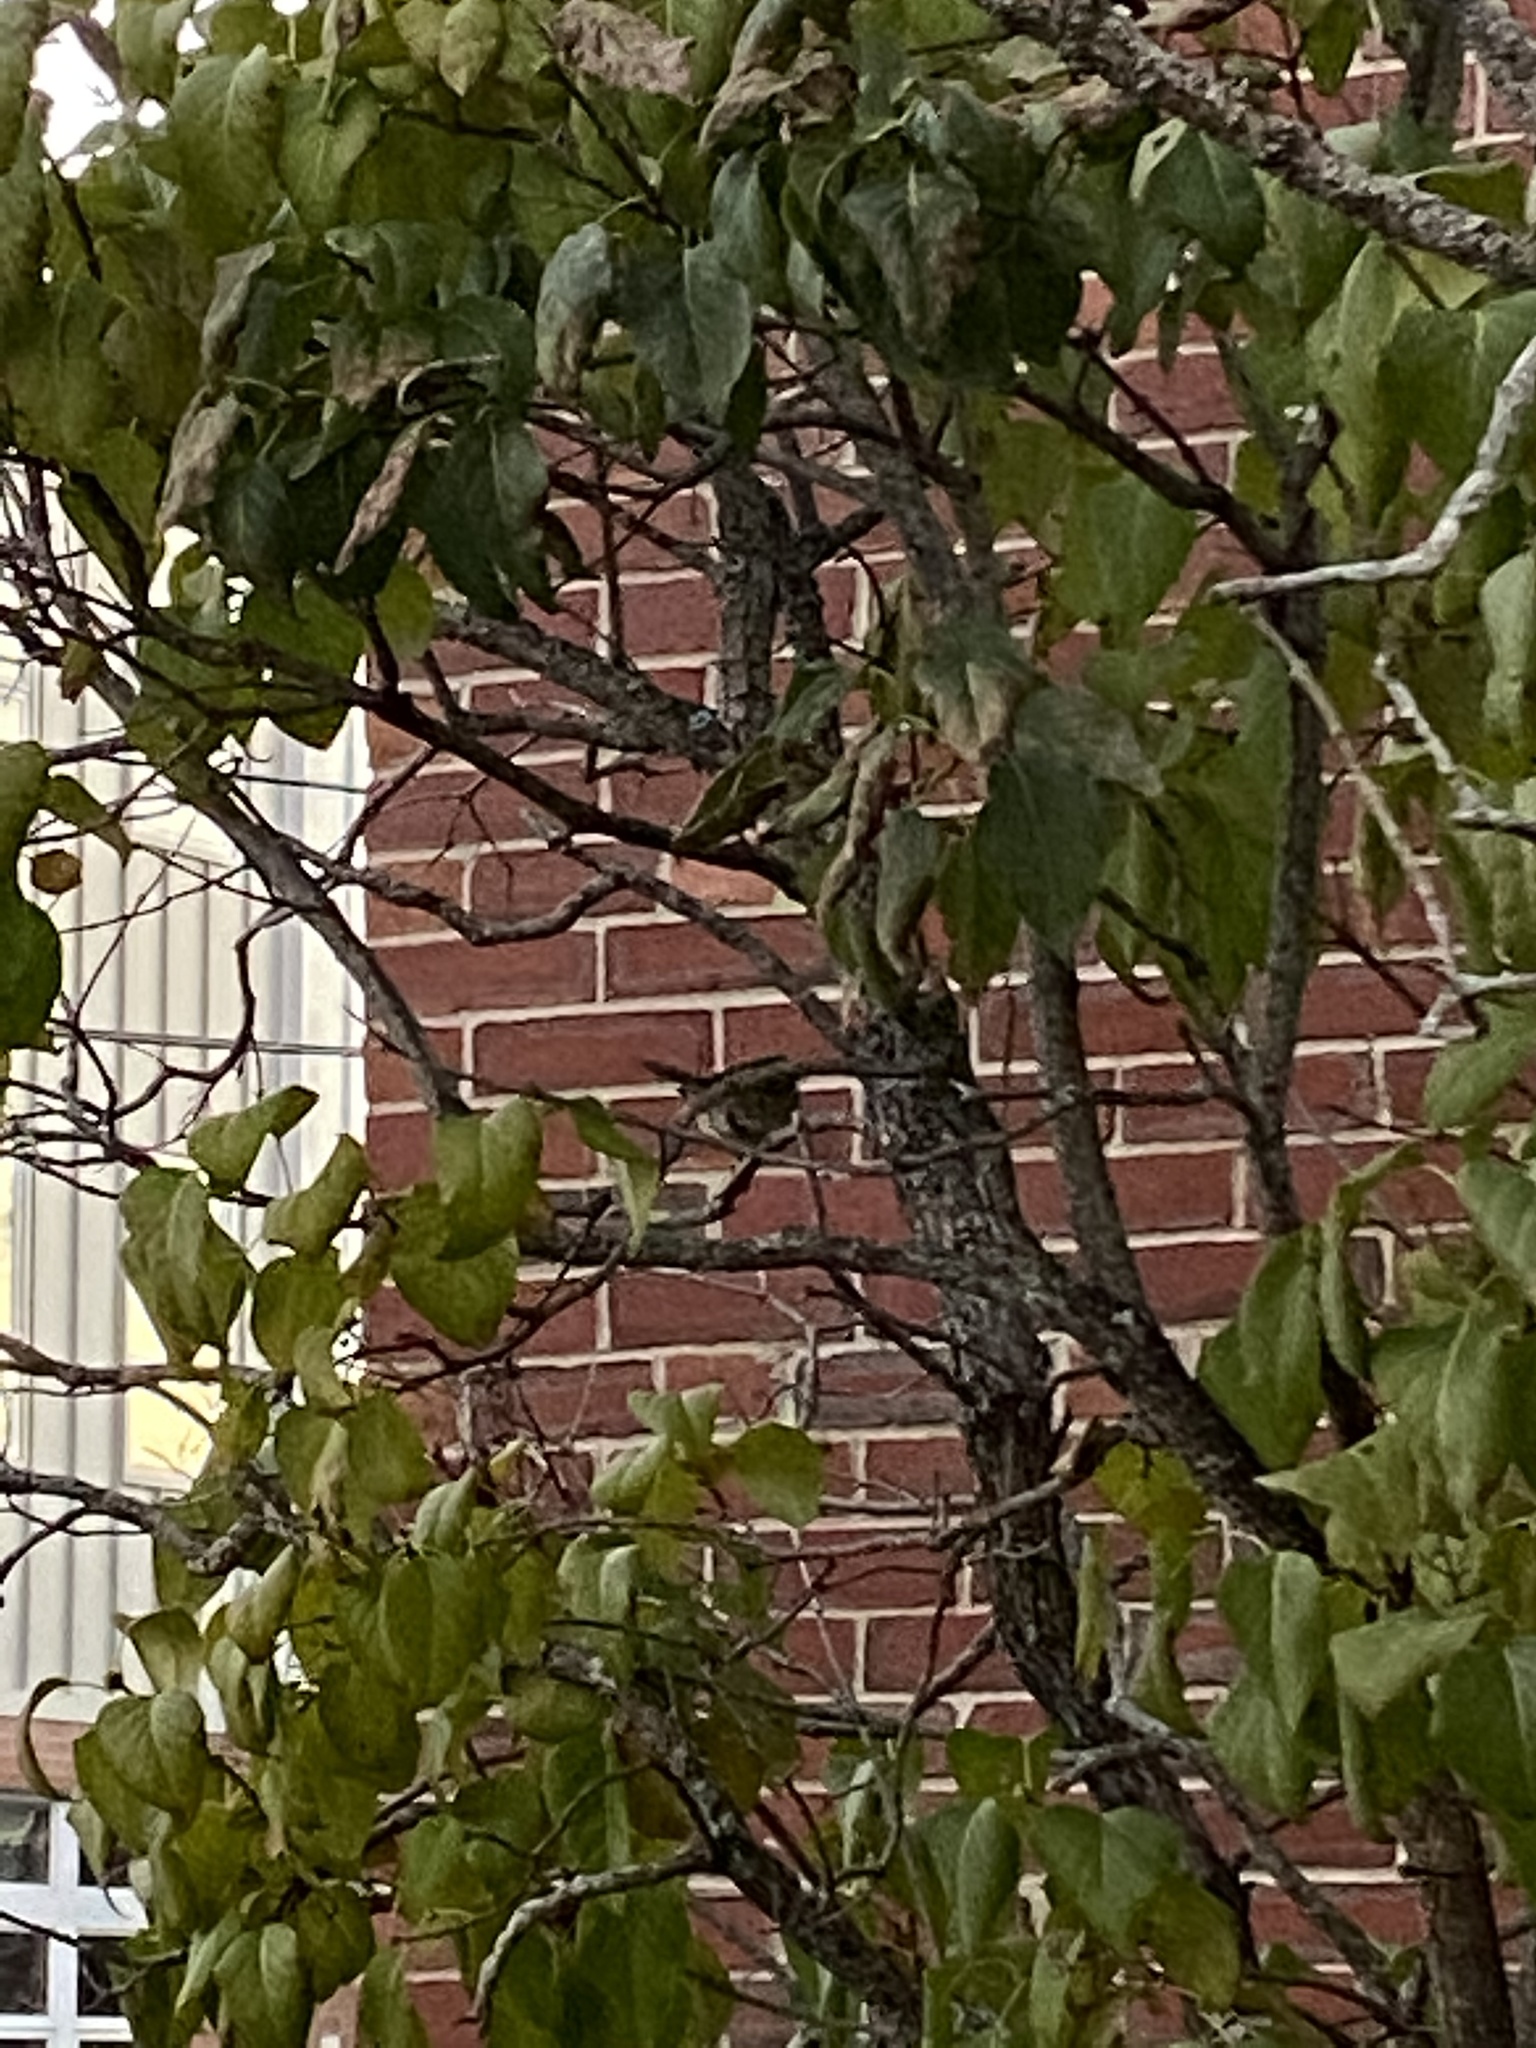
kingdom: Animalia
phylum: Chordata
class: Aves
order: Passeriformes
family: Passerellidae
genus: Zonotrichia
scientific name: Zonotrichia albicollis
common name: White-throated sparrow
